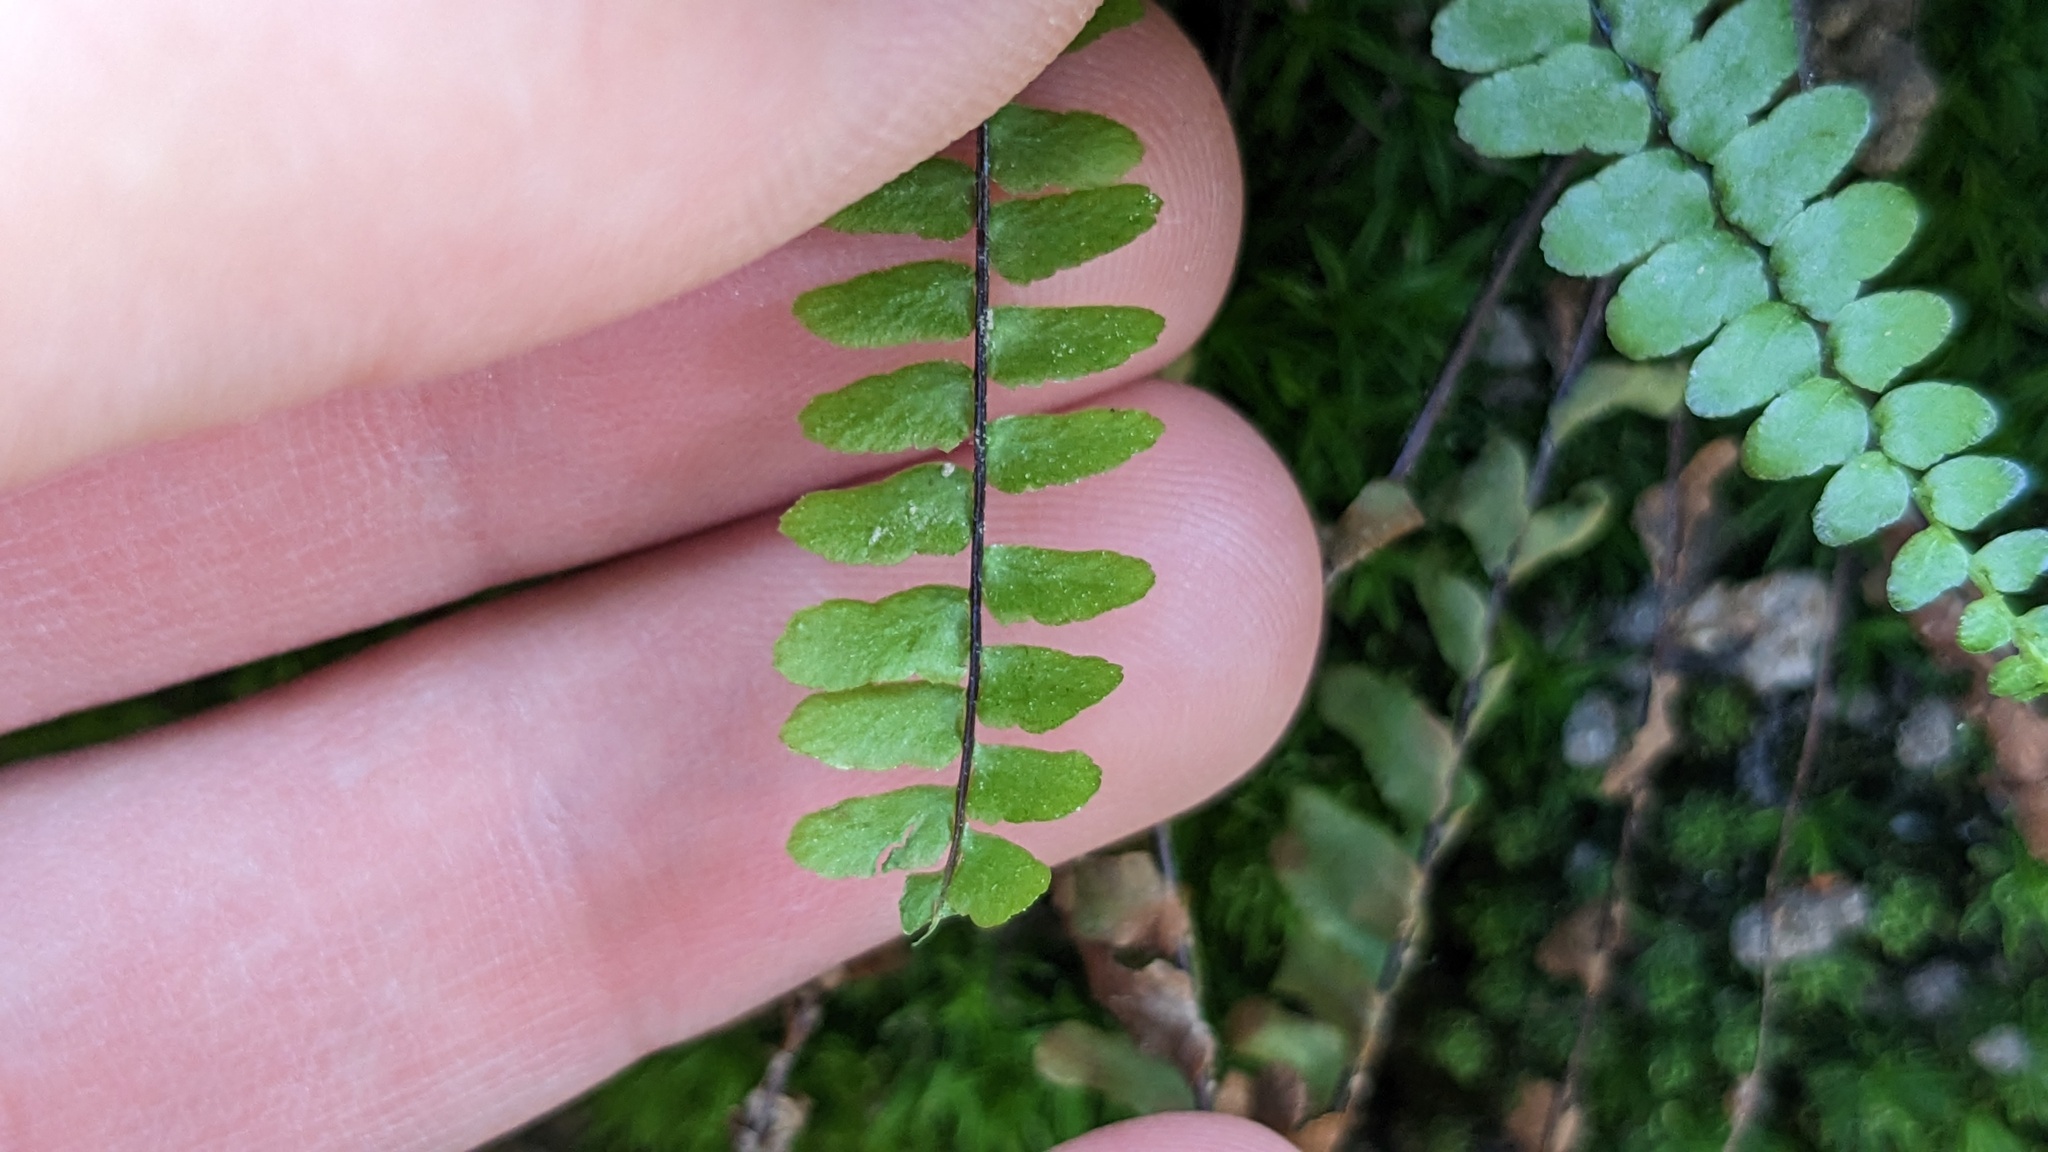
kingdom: Plantae
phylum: Tracheophyta
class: Polypodiopsida
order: Polypodiales
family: Aspleniaceae
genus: Asplenium
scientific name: Asplenium platyneuron
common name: Ebony spleenwort
